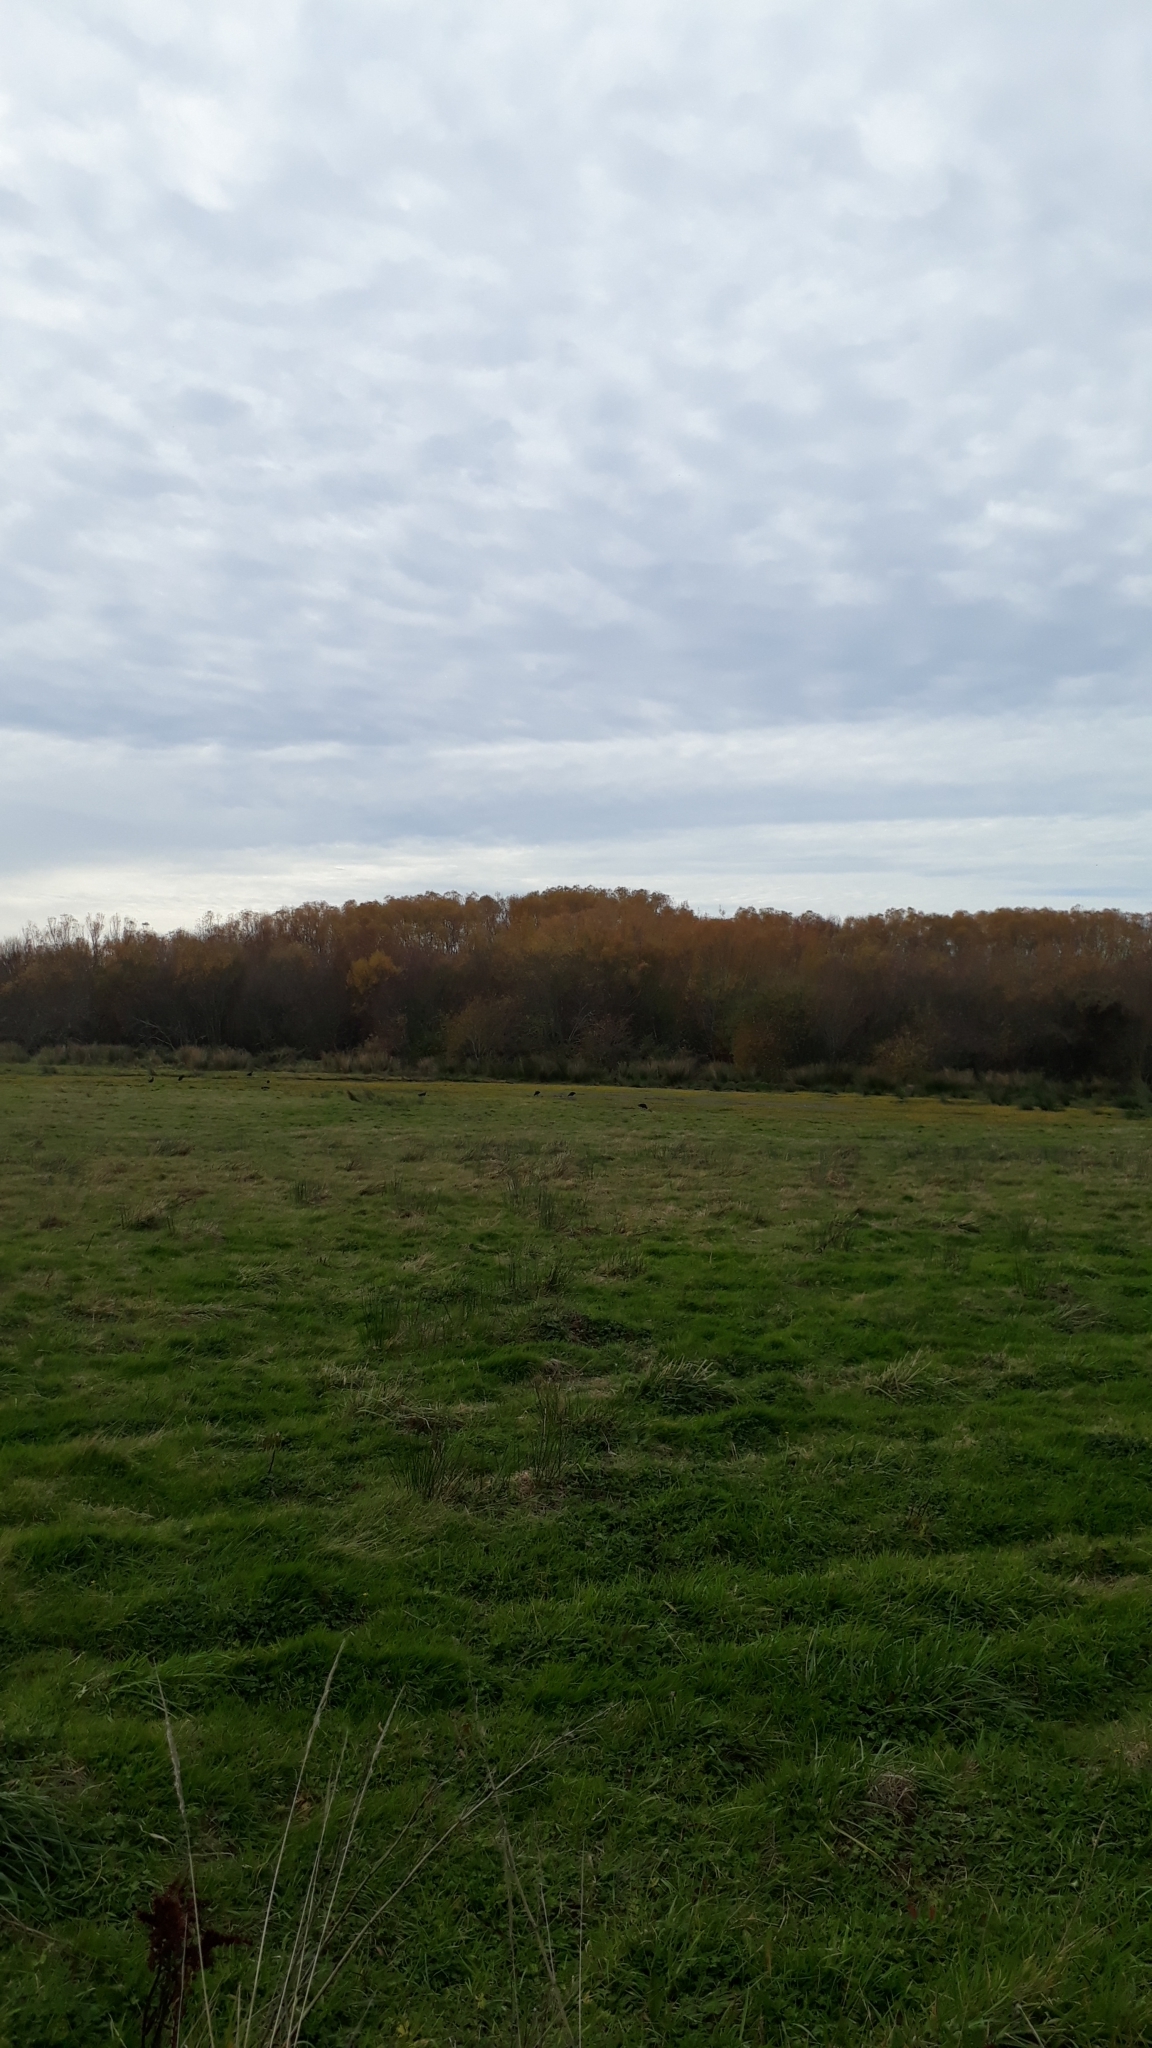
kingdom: Animalia
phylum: Chordata
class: Aves
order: Gruiformes
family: Rallidae
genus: Porphyrio
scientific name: Porphyrio melanotus
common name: Australasian swamphen
